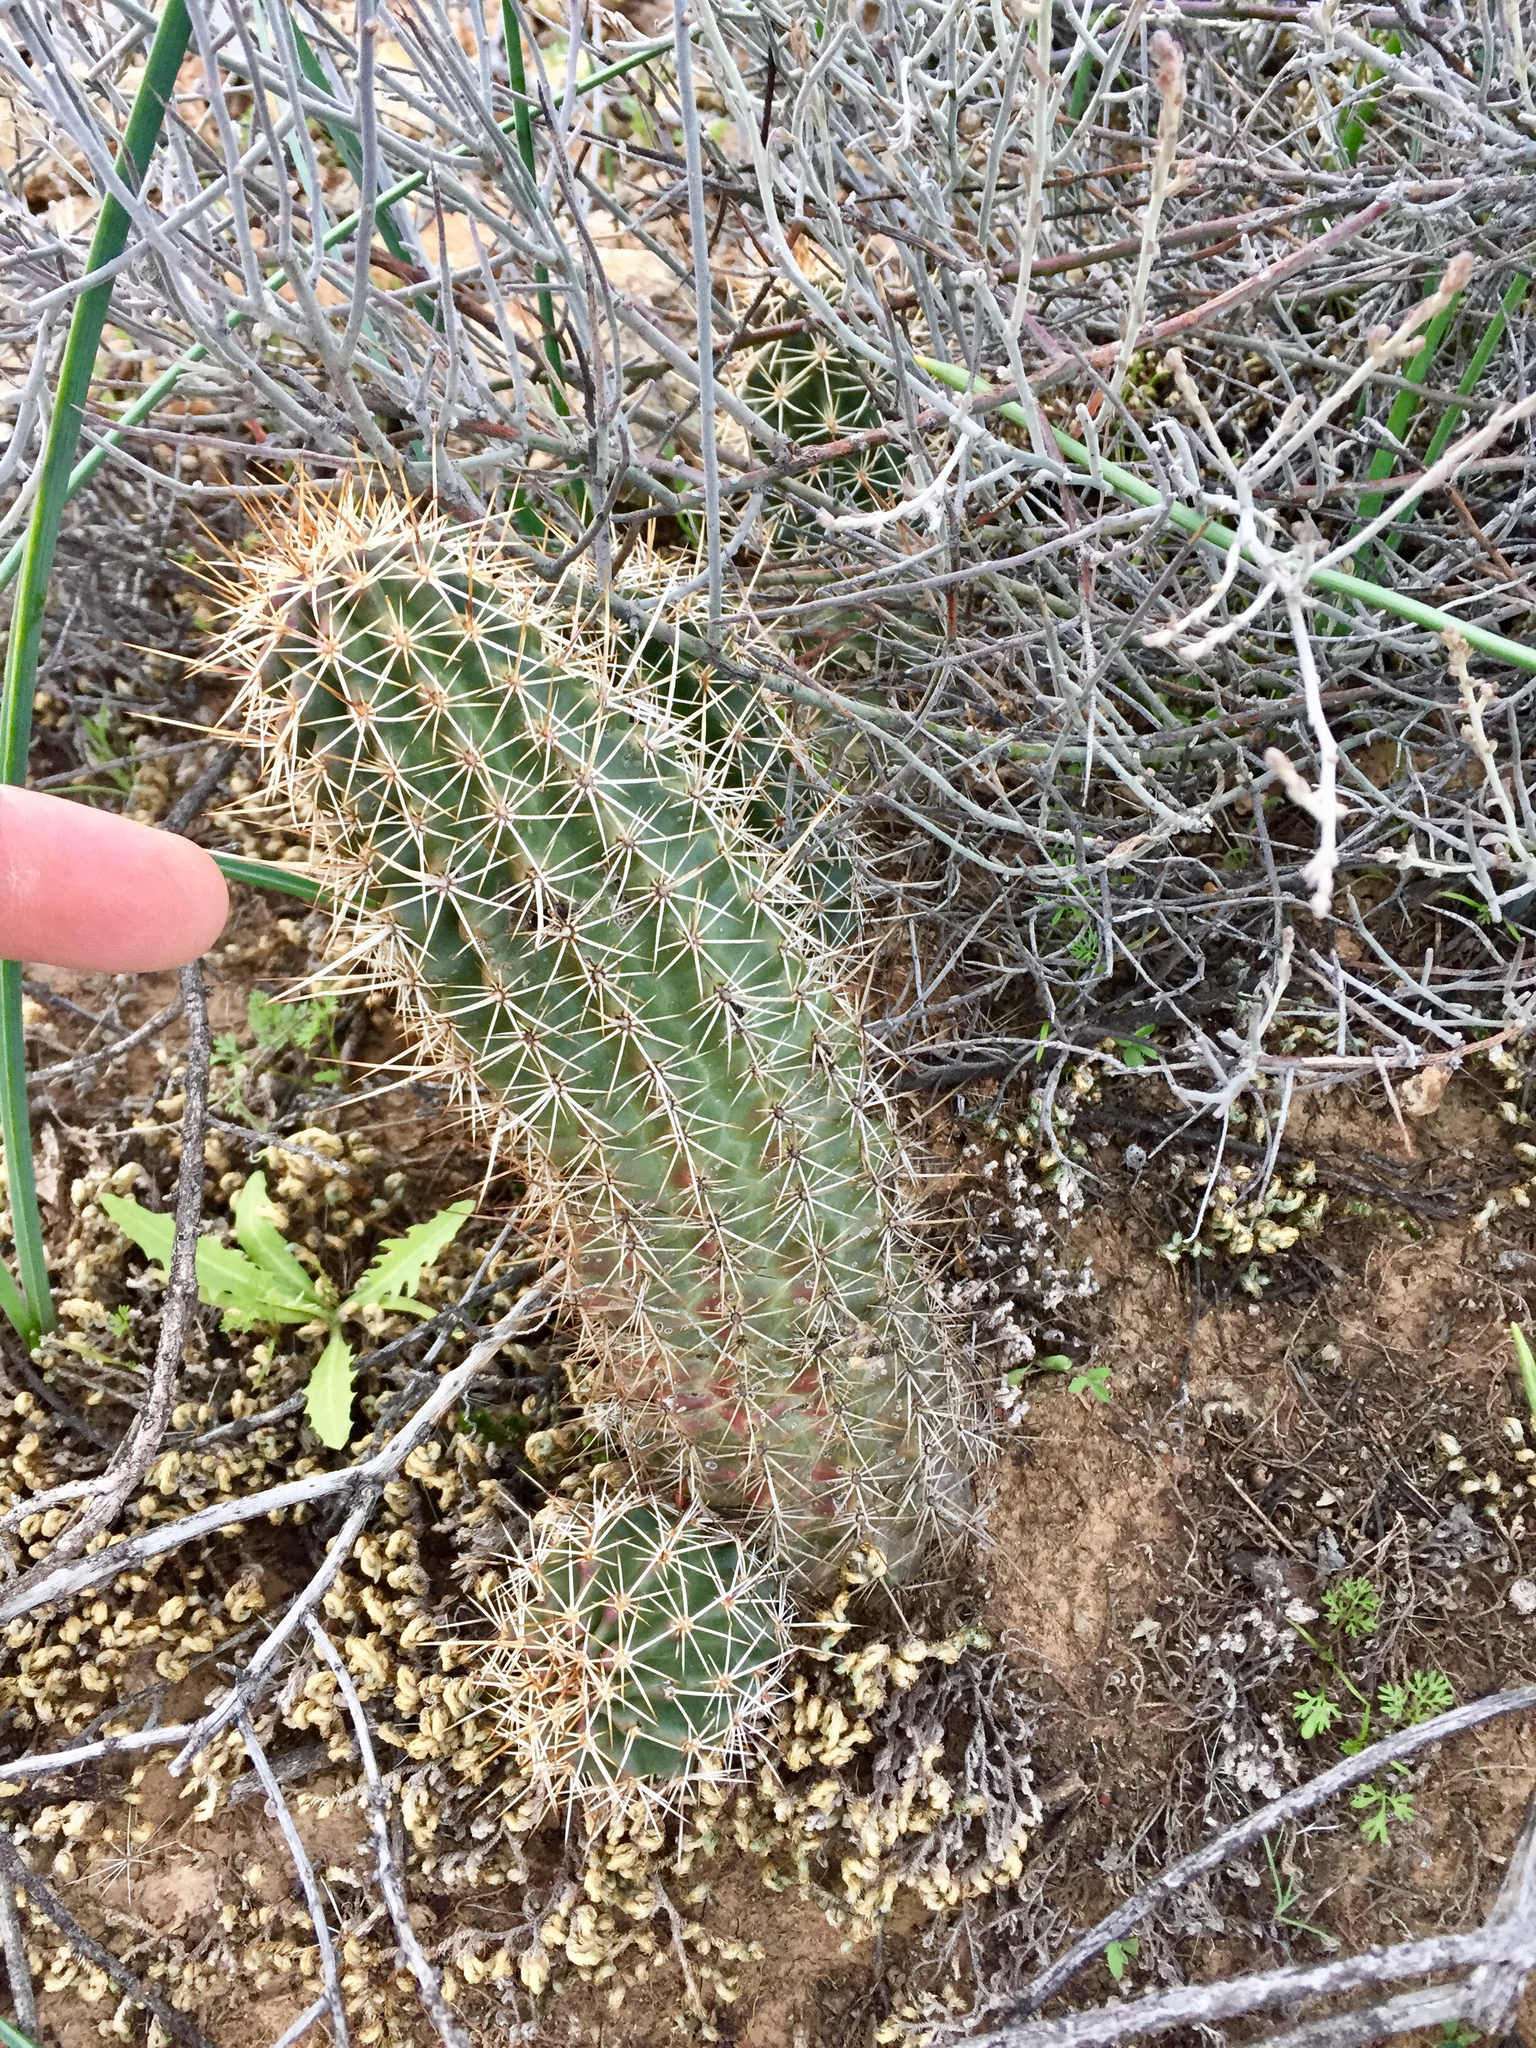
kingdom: Plantae
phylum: Tracheophyta
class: Magnoliopsida
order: Caryophyllales
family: Cactaceae
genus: Echinocereus
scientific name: Echinocereus fasciculatus
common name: Bundle hedgehog
